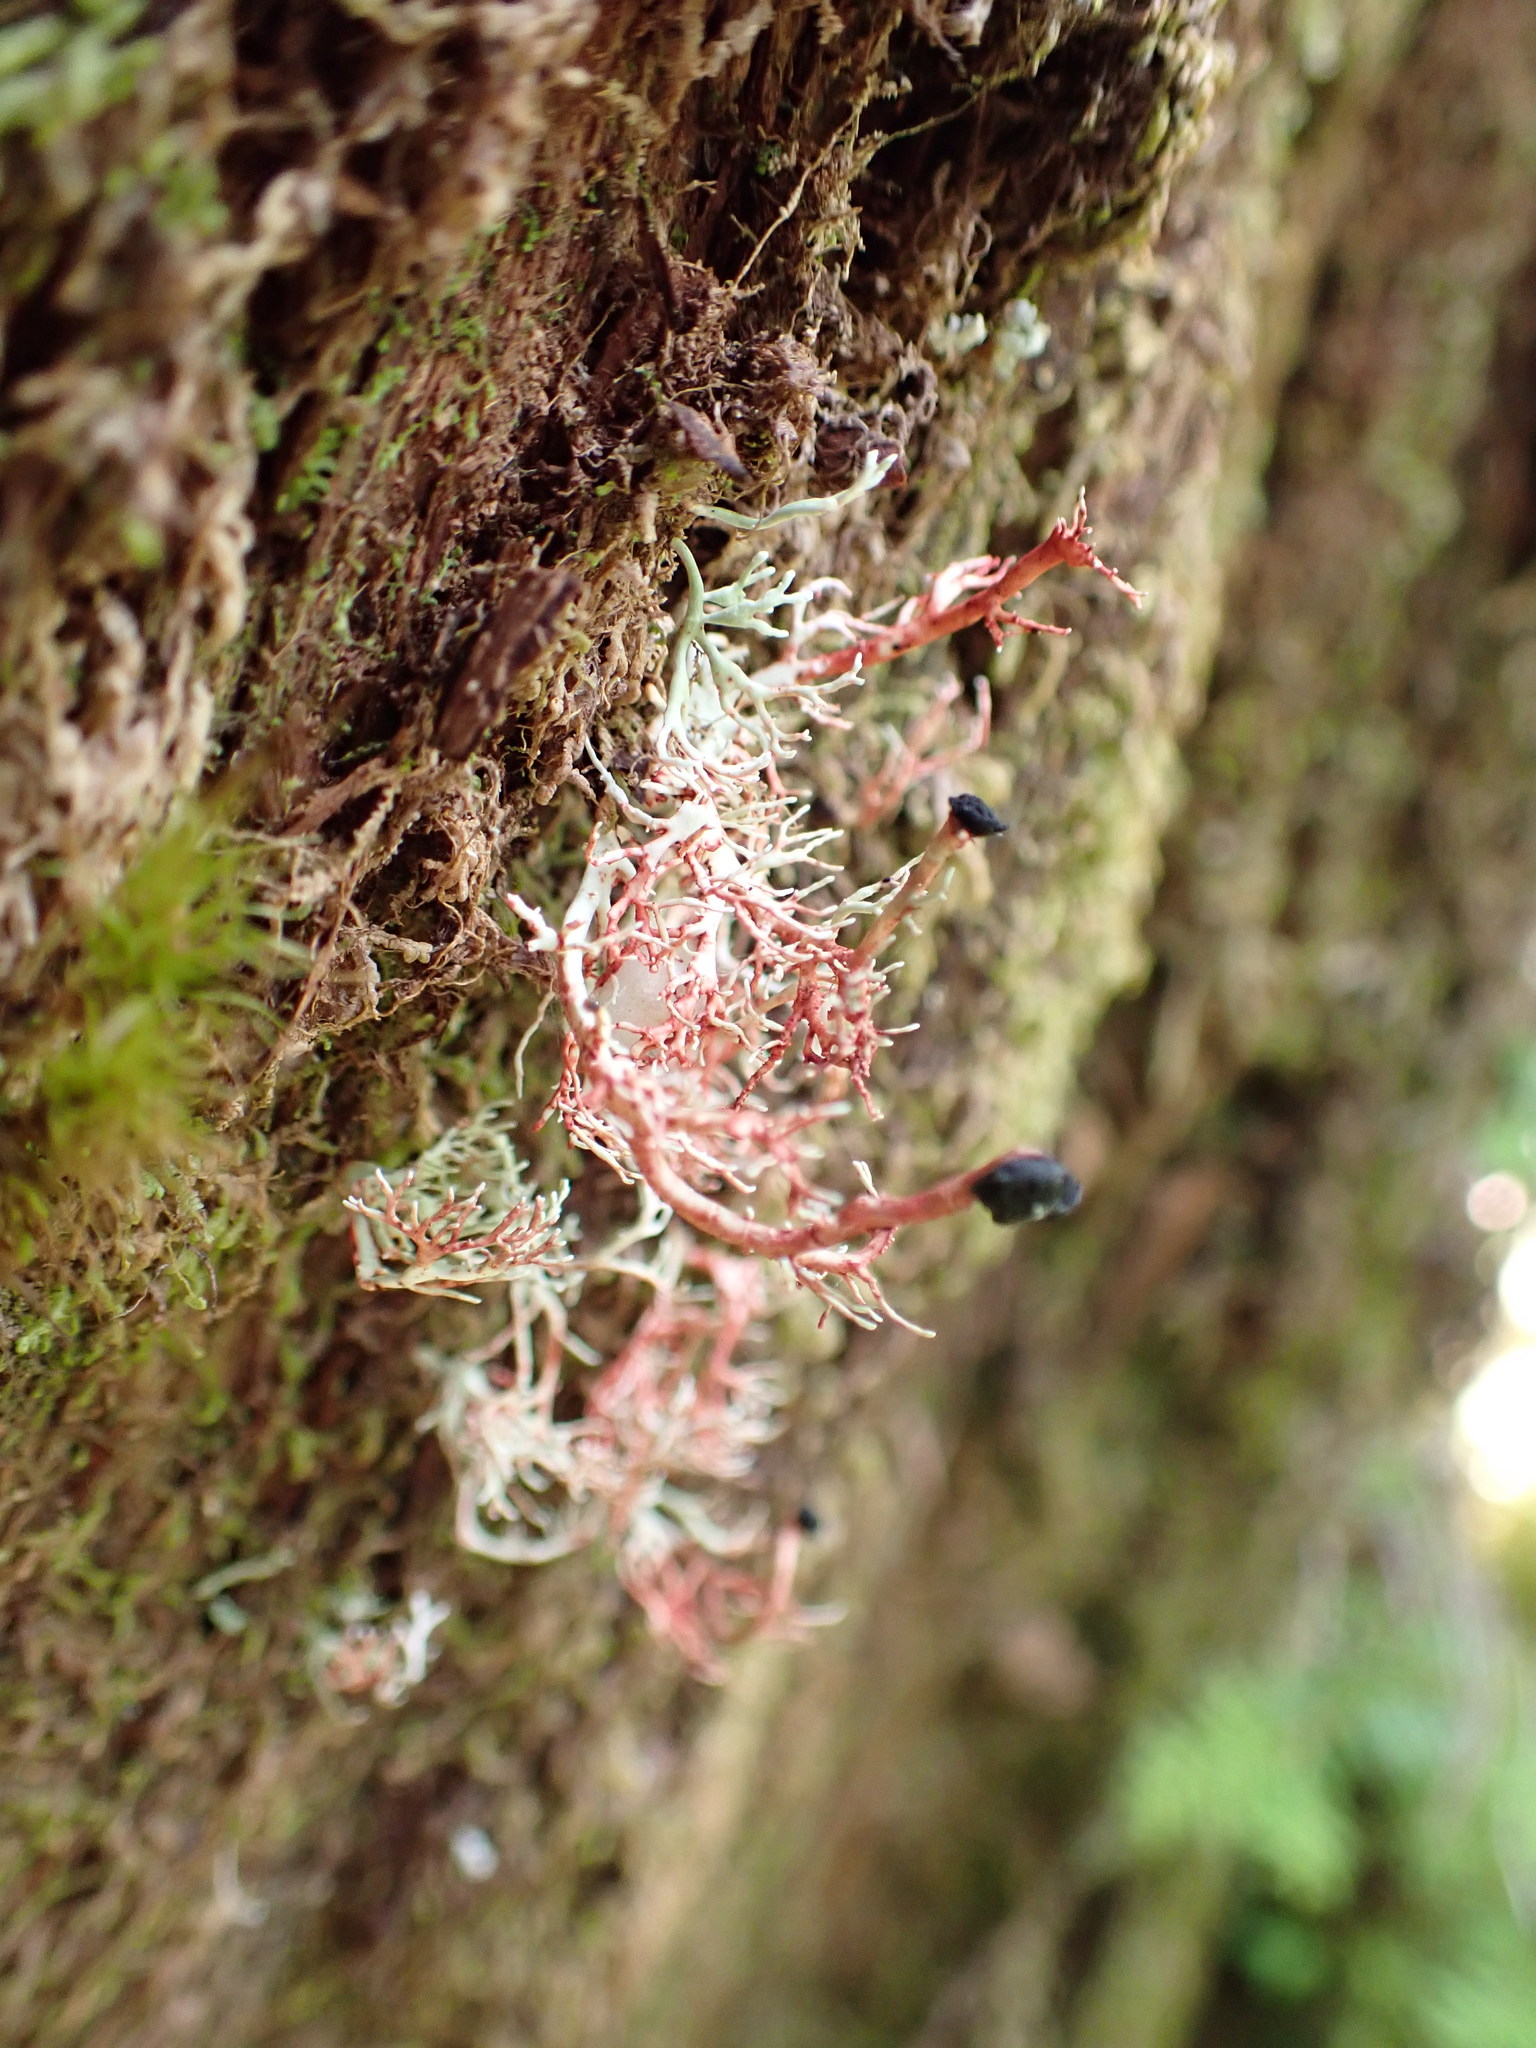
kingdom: Fungi
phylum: Ascomycota
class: Lecanoromycetes
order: Lecanorales
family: Sphaerophoraceae
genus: Sphaerophorus
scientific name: Sphaerophorus globosus
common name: Globe ball lichen
